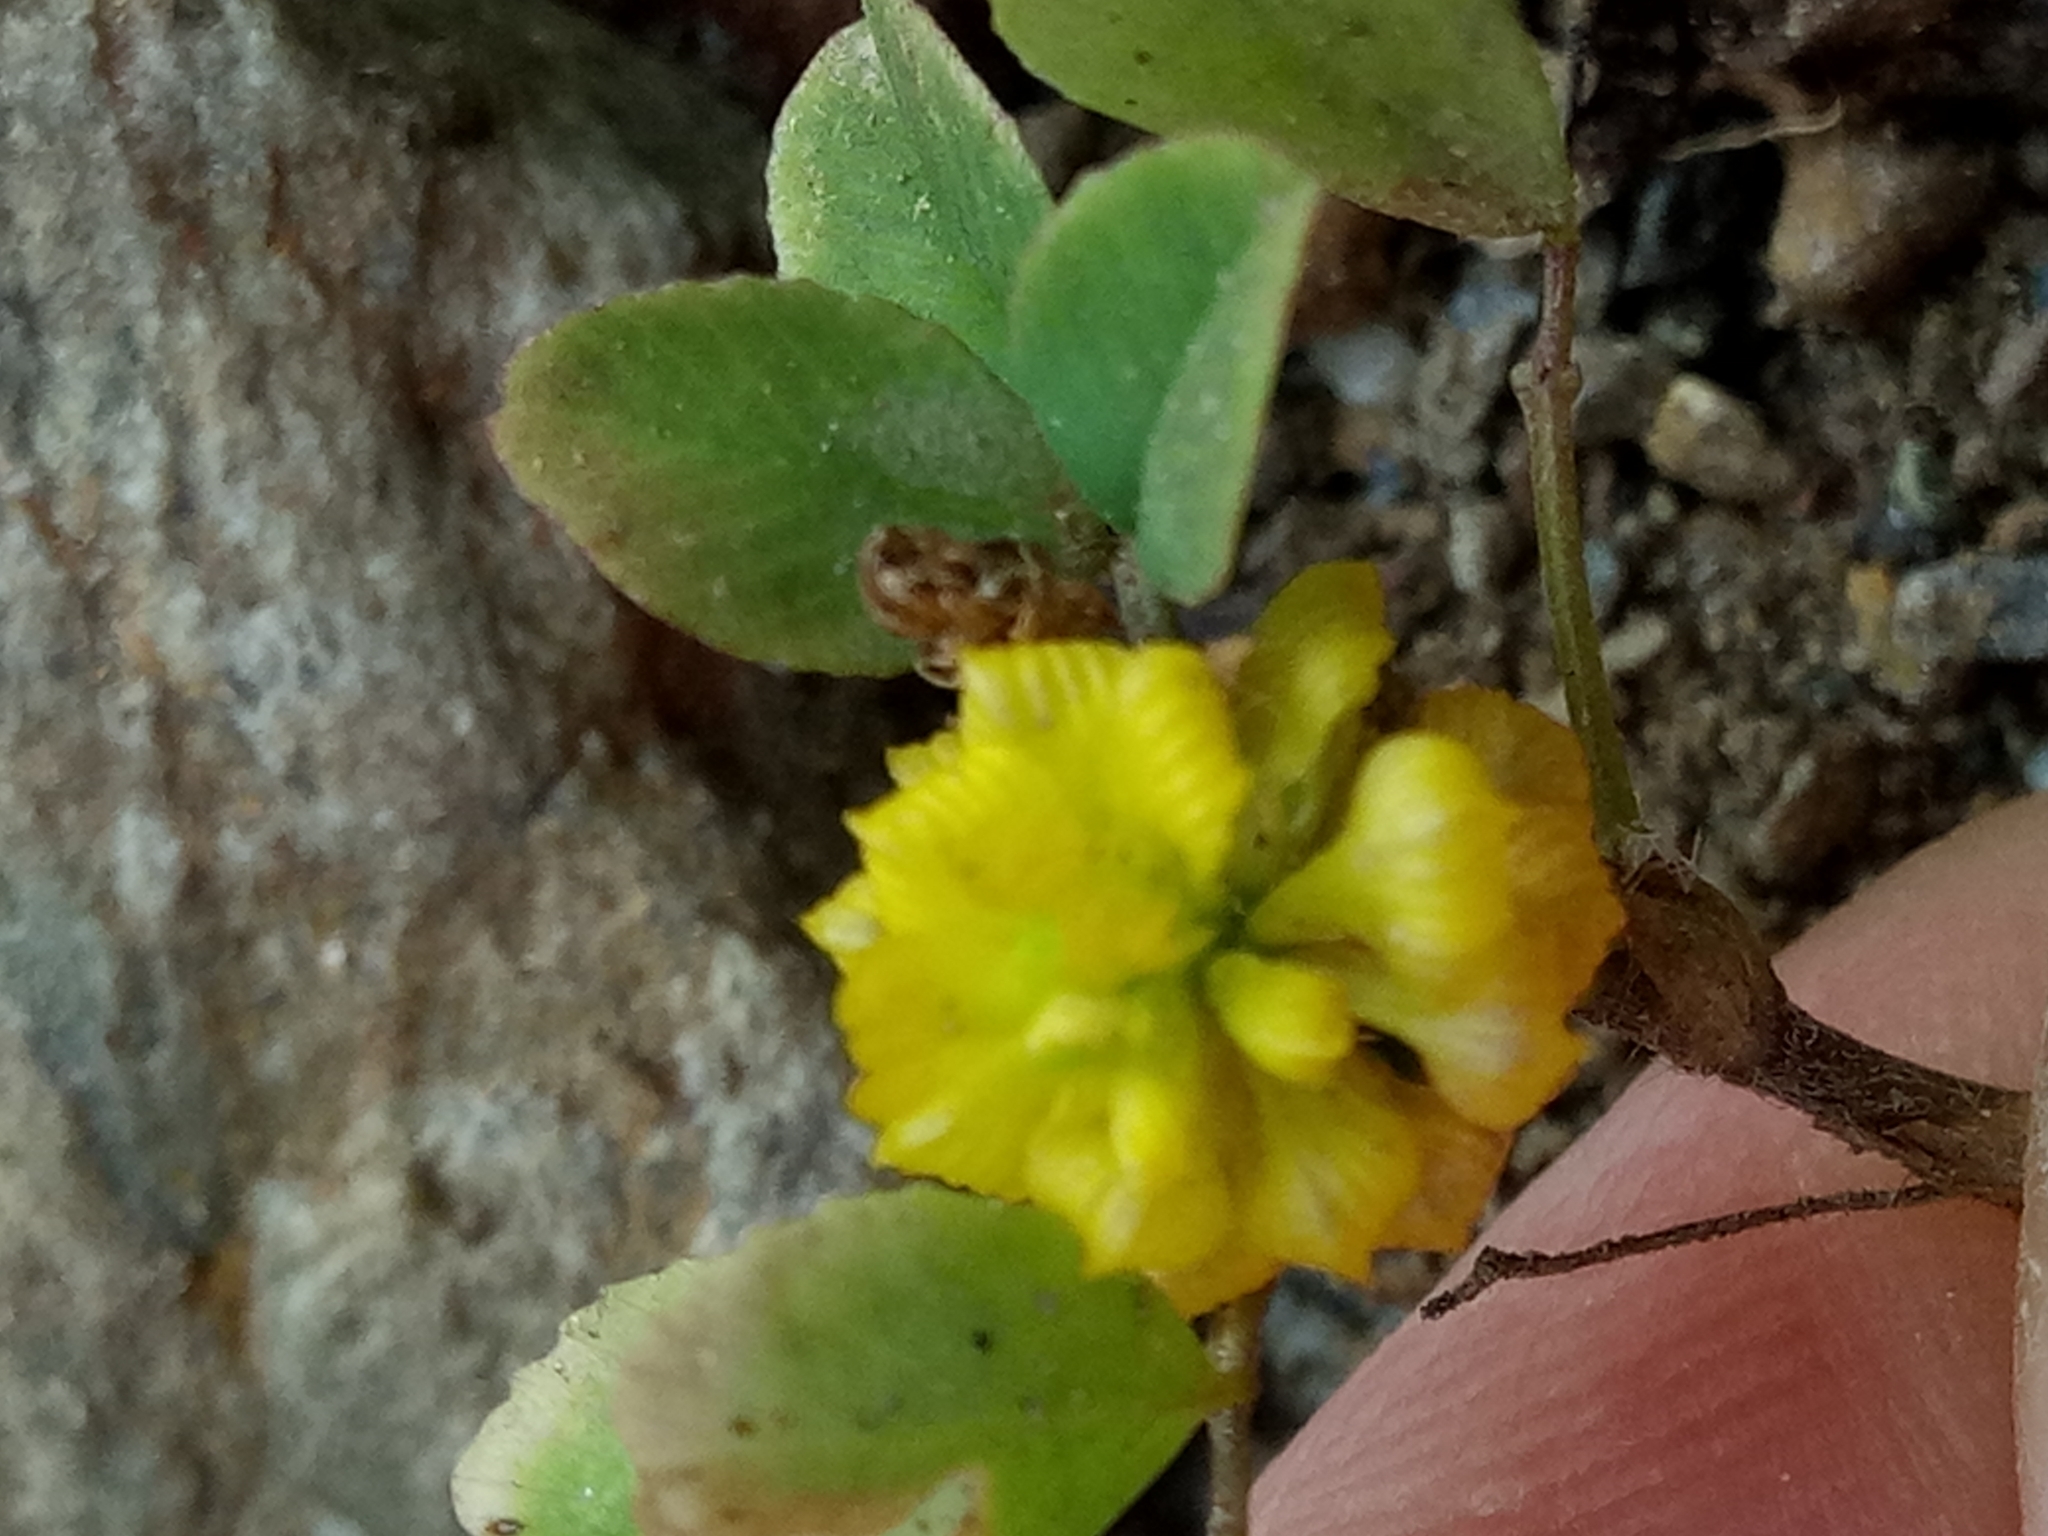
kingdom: Plantae
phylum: Tracheophyta
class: Magnoliopsida
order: Fabales
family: Fabaceae
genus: Trifolium
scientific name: Trifolium campestre
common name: Field clover
